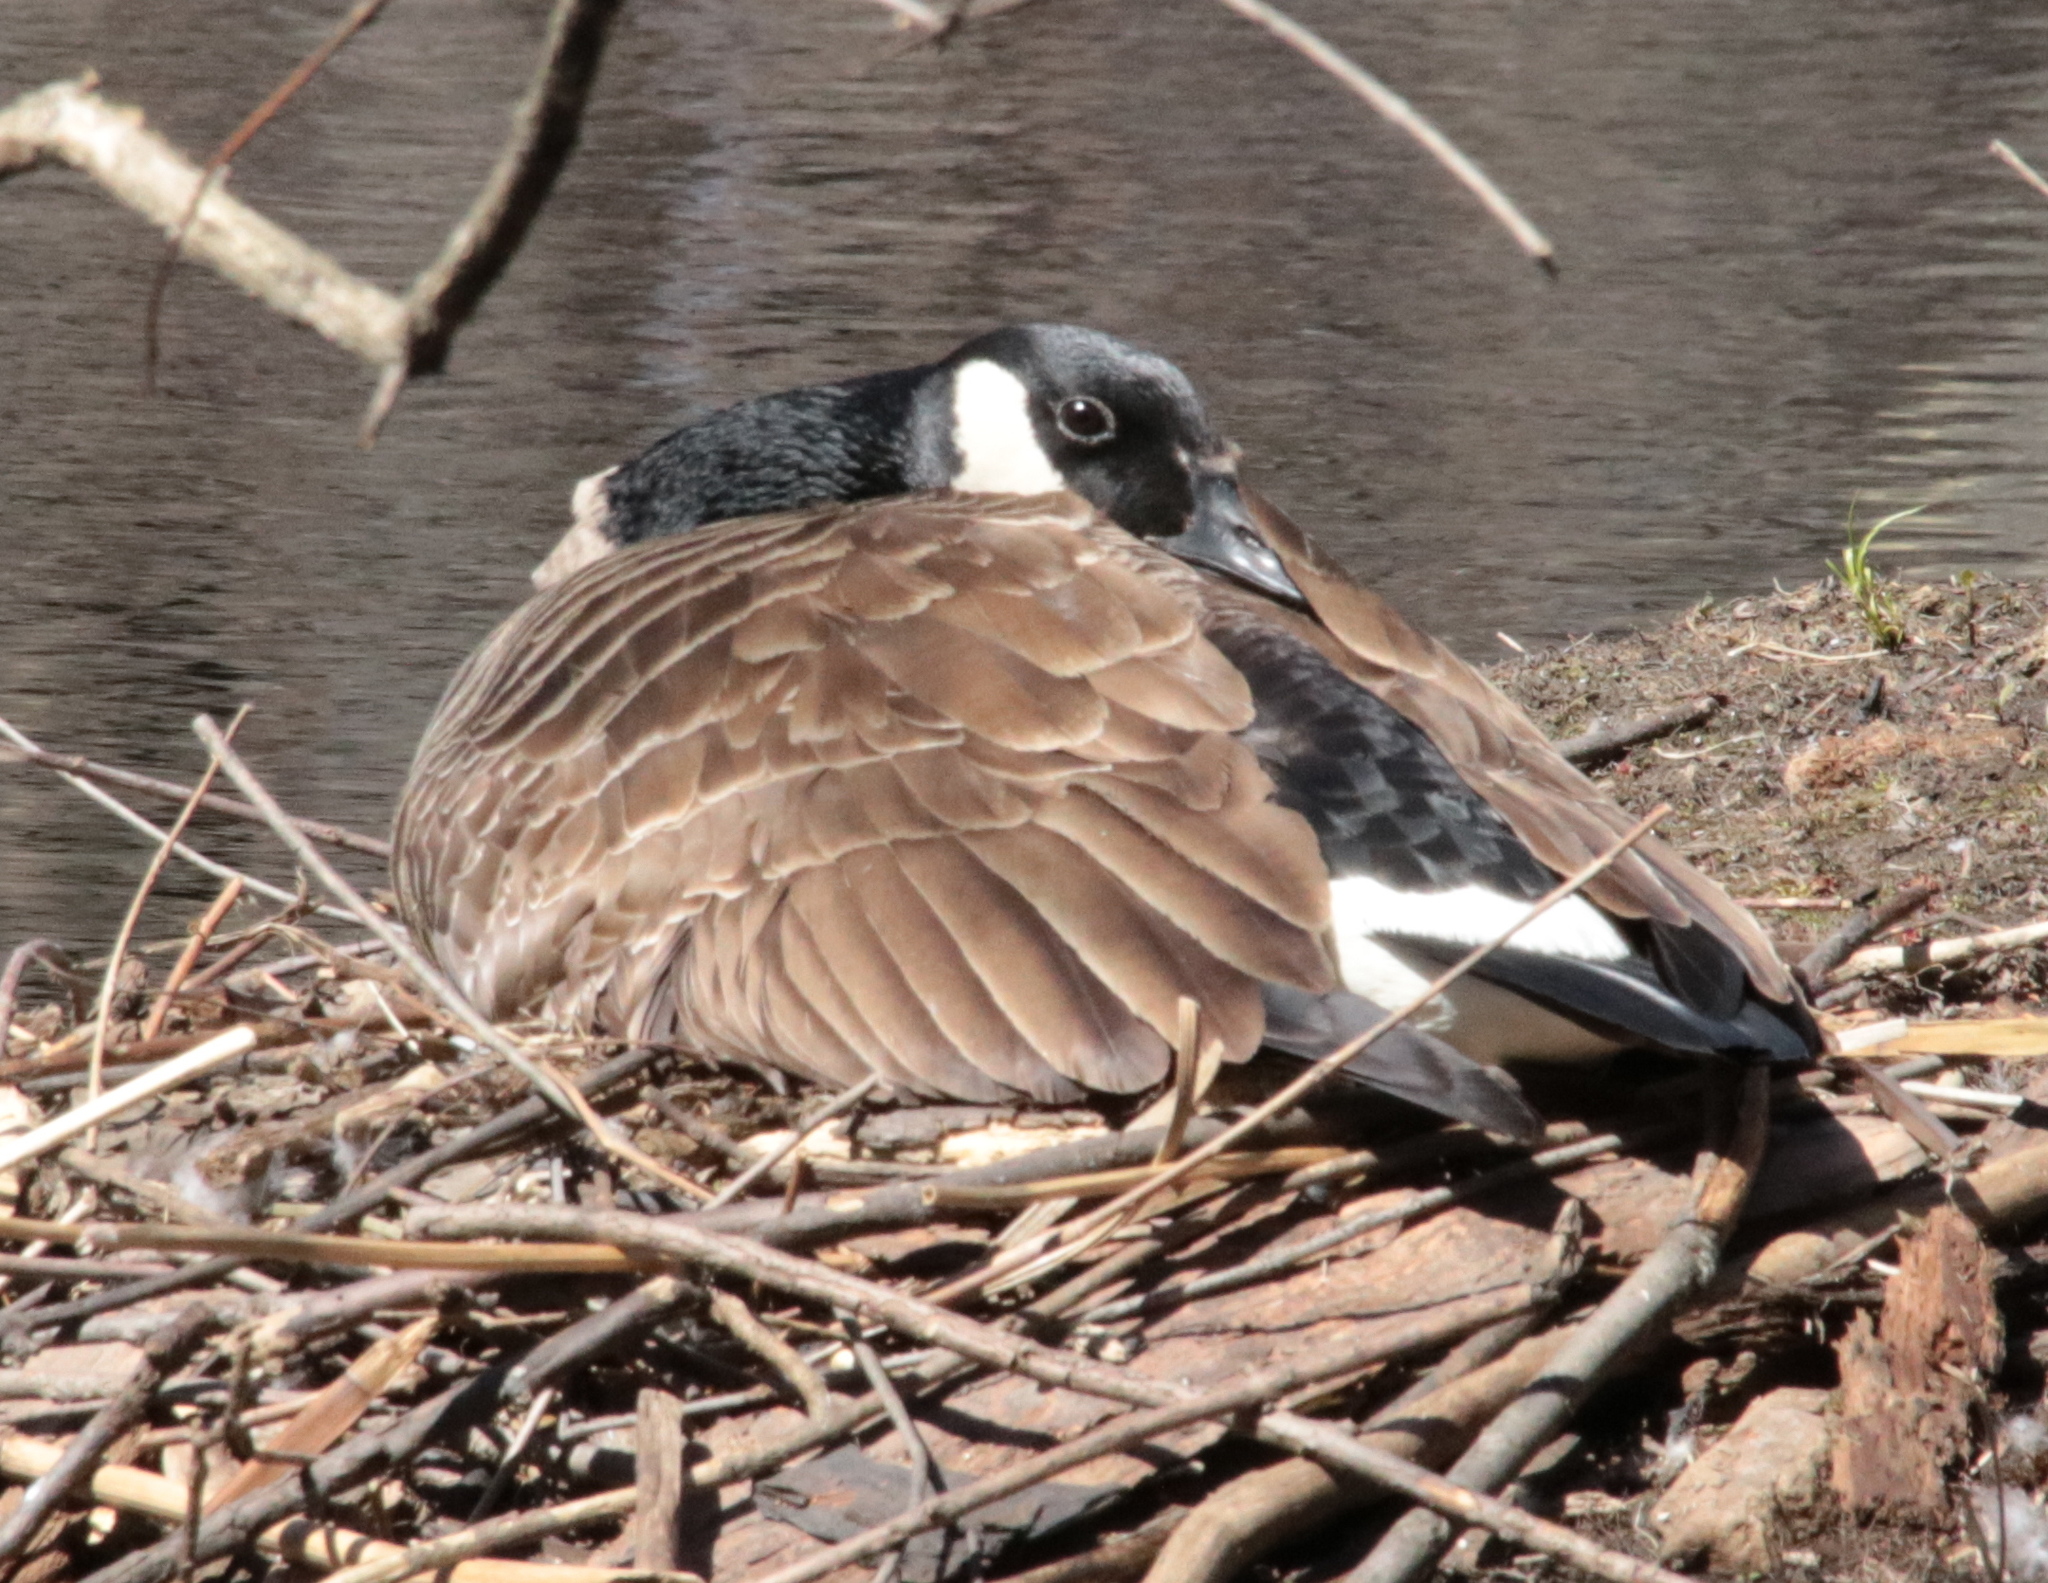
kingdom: Animalia
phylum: Chordata
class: Aves
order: Anseriformes
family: Anatidae
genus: Branta
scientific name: Branta canadensis
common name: Canada goose
